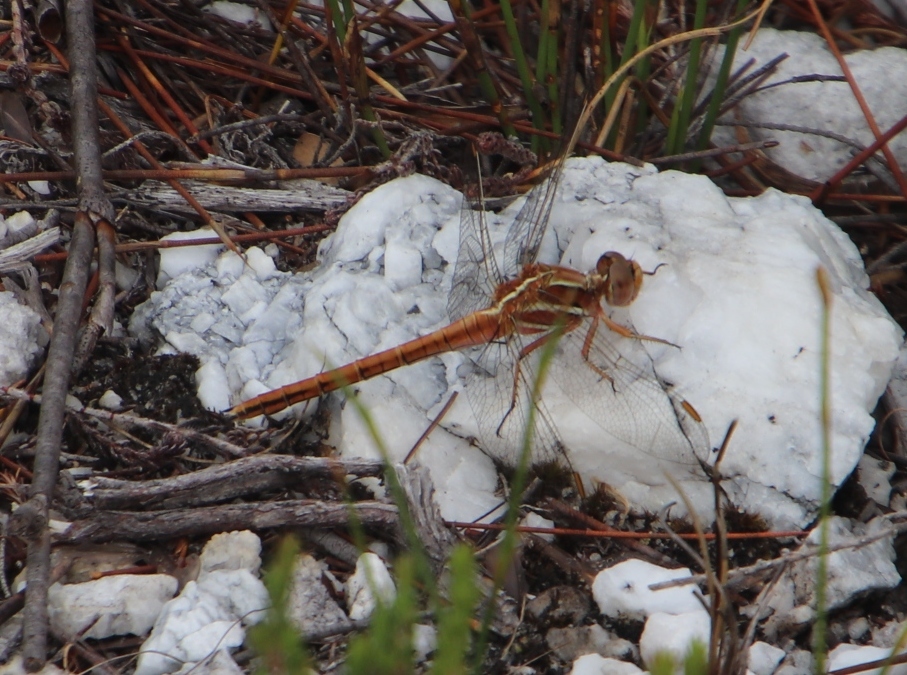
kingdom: Animalia
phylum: Arthropoda
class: Insecta
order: Odonata
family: Libellulidae
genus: Orthetrum
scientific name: Orthetrum caffrum
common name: Two-striped skimmer
